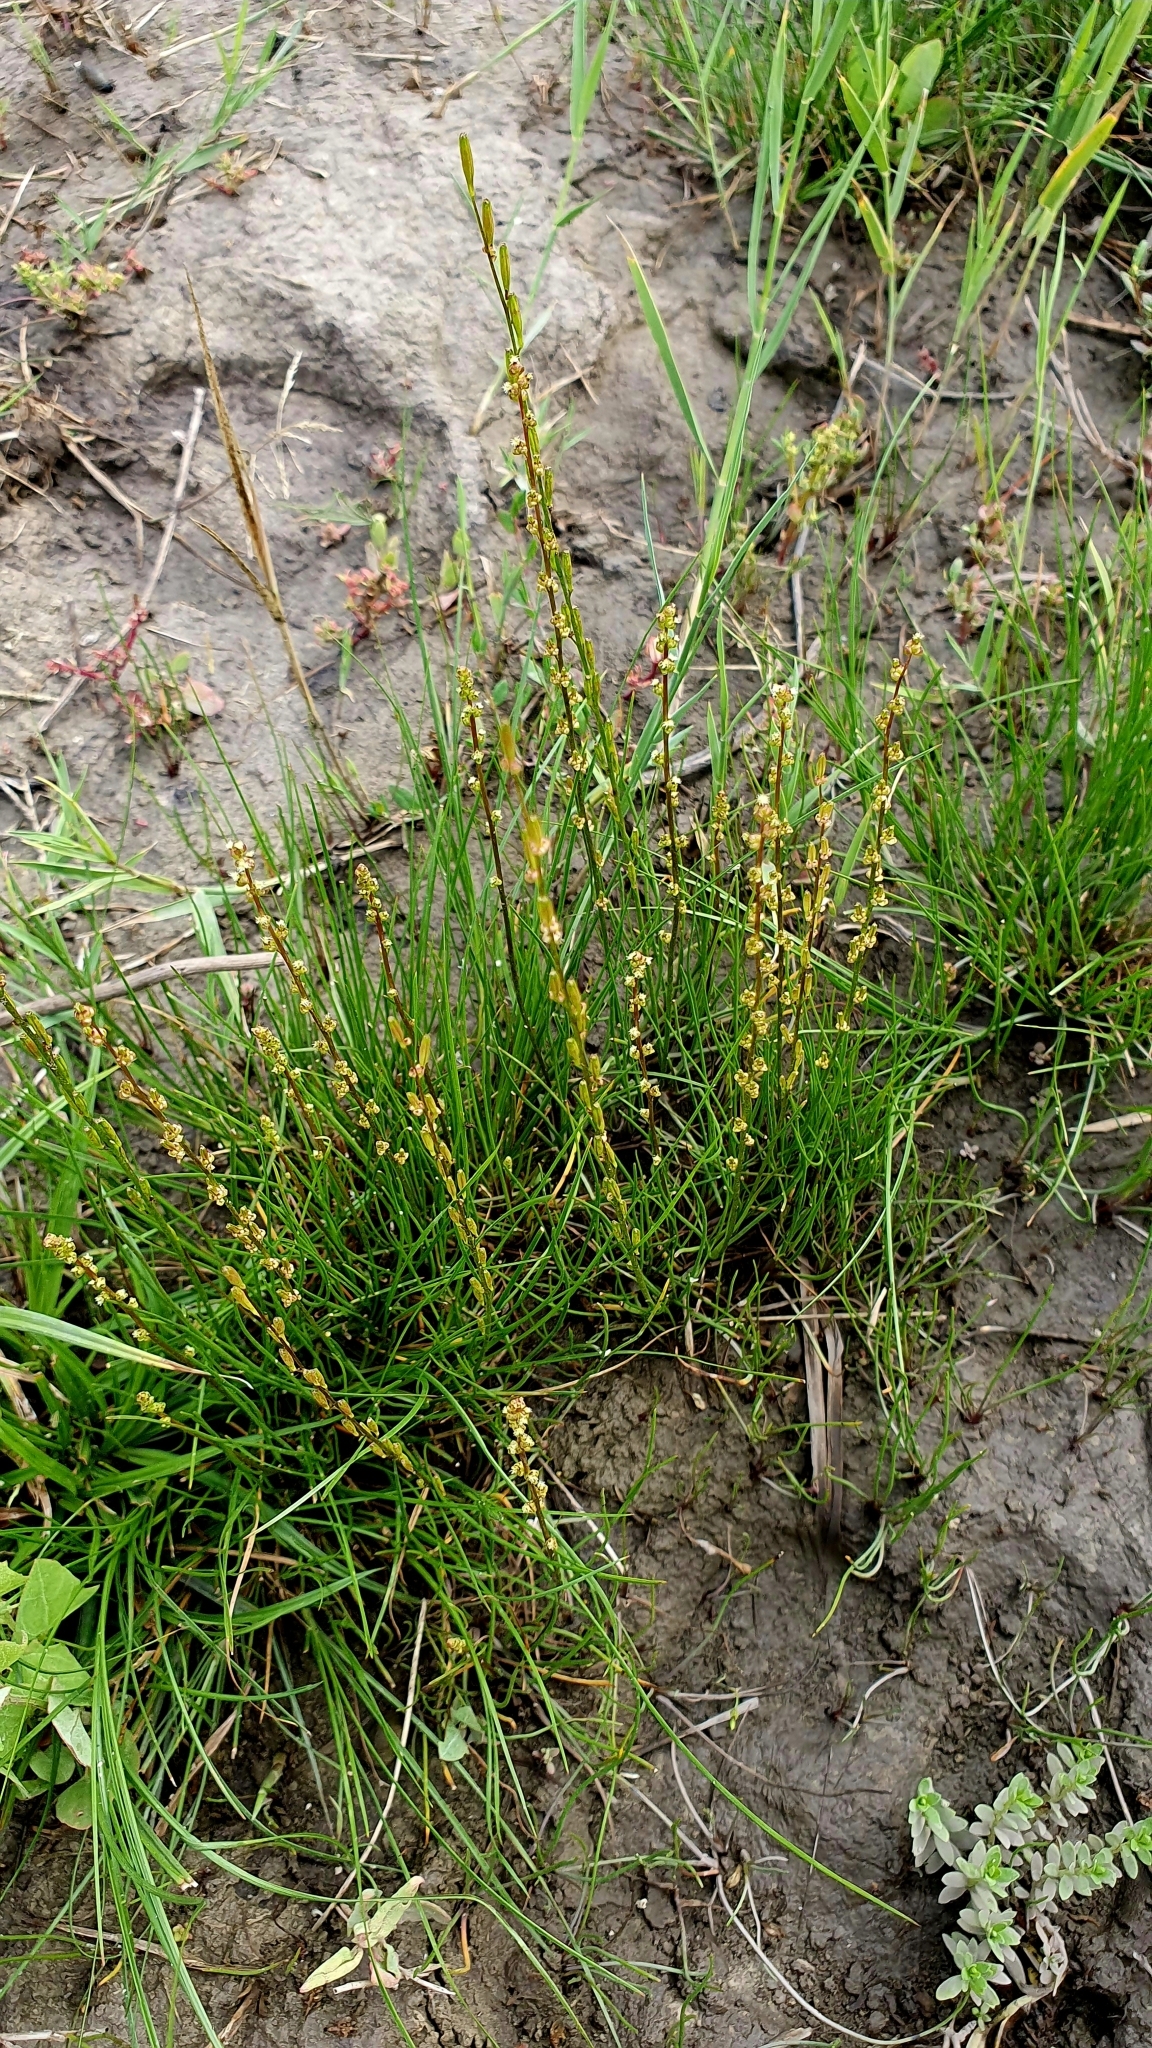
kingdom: Plantae
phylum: Tracheophyta
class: Liliopsida
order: Alismatales
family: Juncaginaceae
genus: Triglochin
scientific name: Triglochin palustris
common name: Marsh arrowgrass
